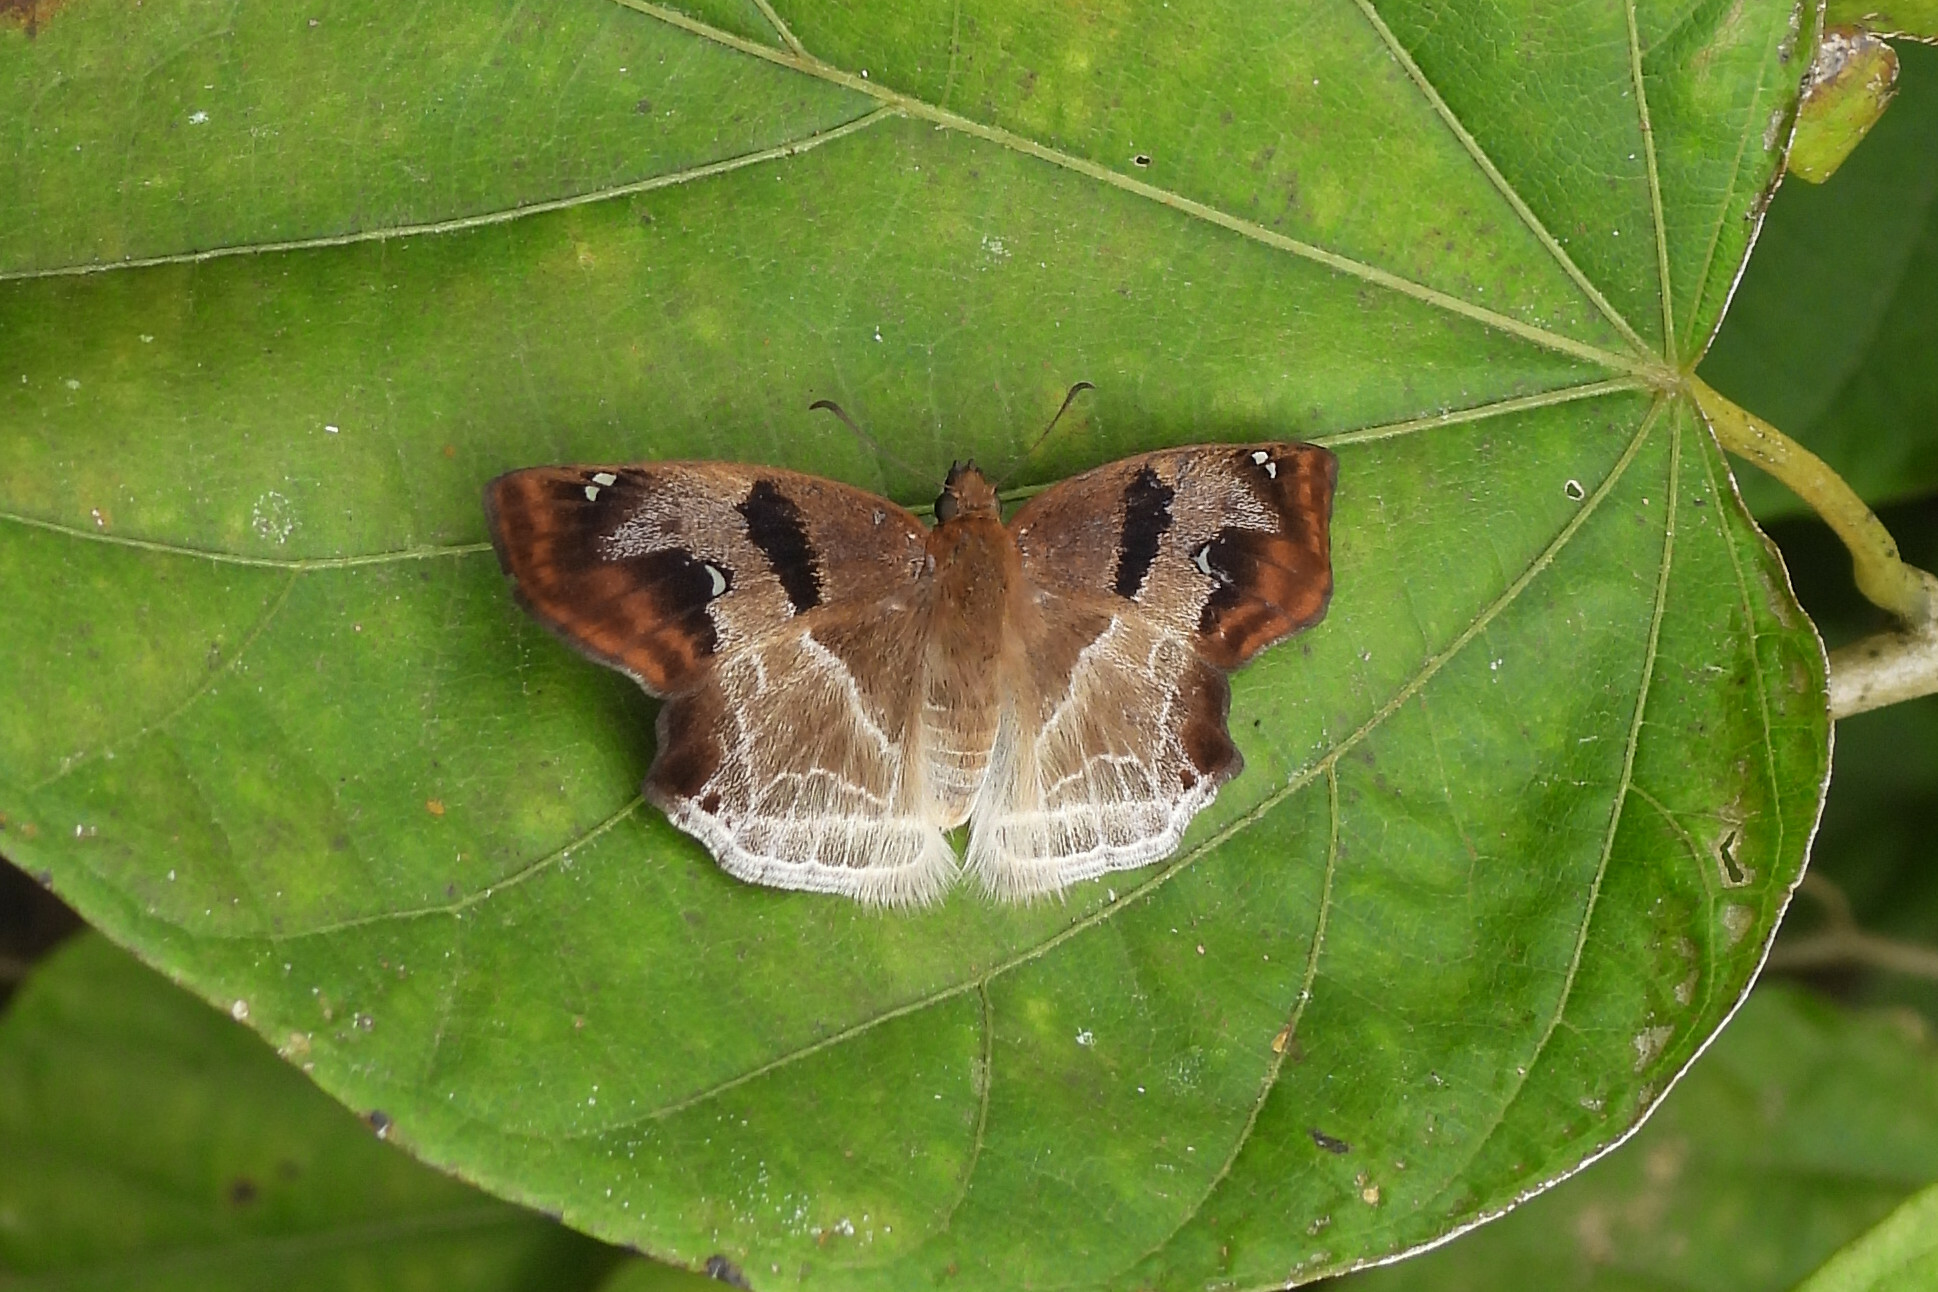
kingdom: Animalia
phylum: Arthropoda
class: Insecta
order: Lepidoptera
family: Hesperiidae
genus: Odontoptilum
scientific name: Odontoptilum angulata
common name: Chestnut banded angle
